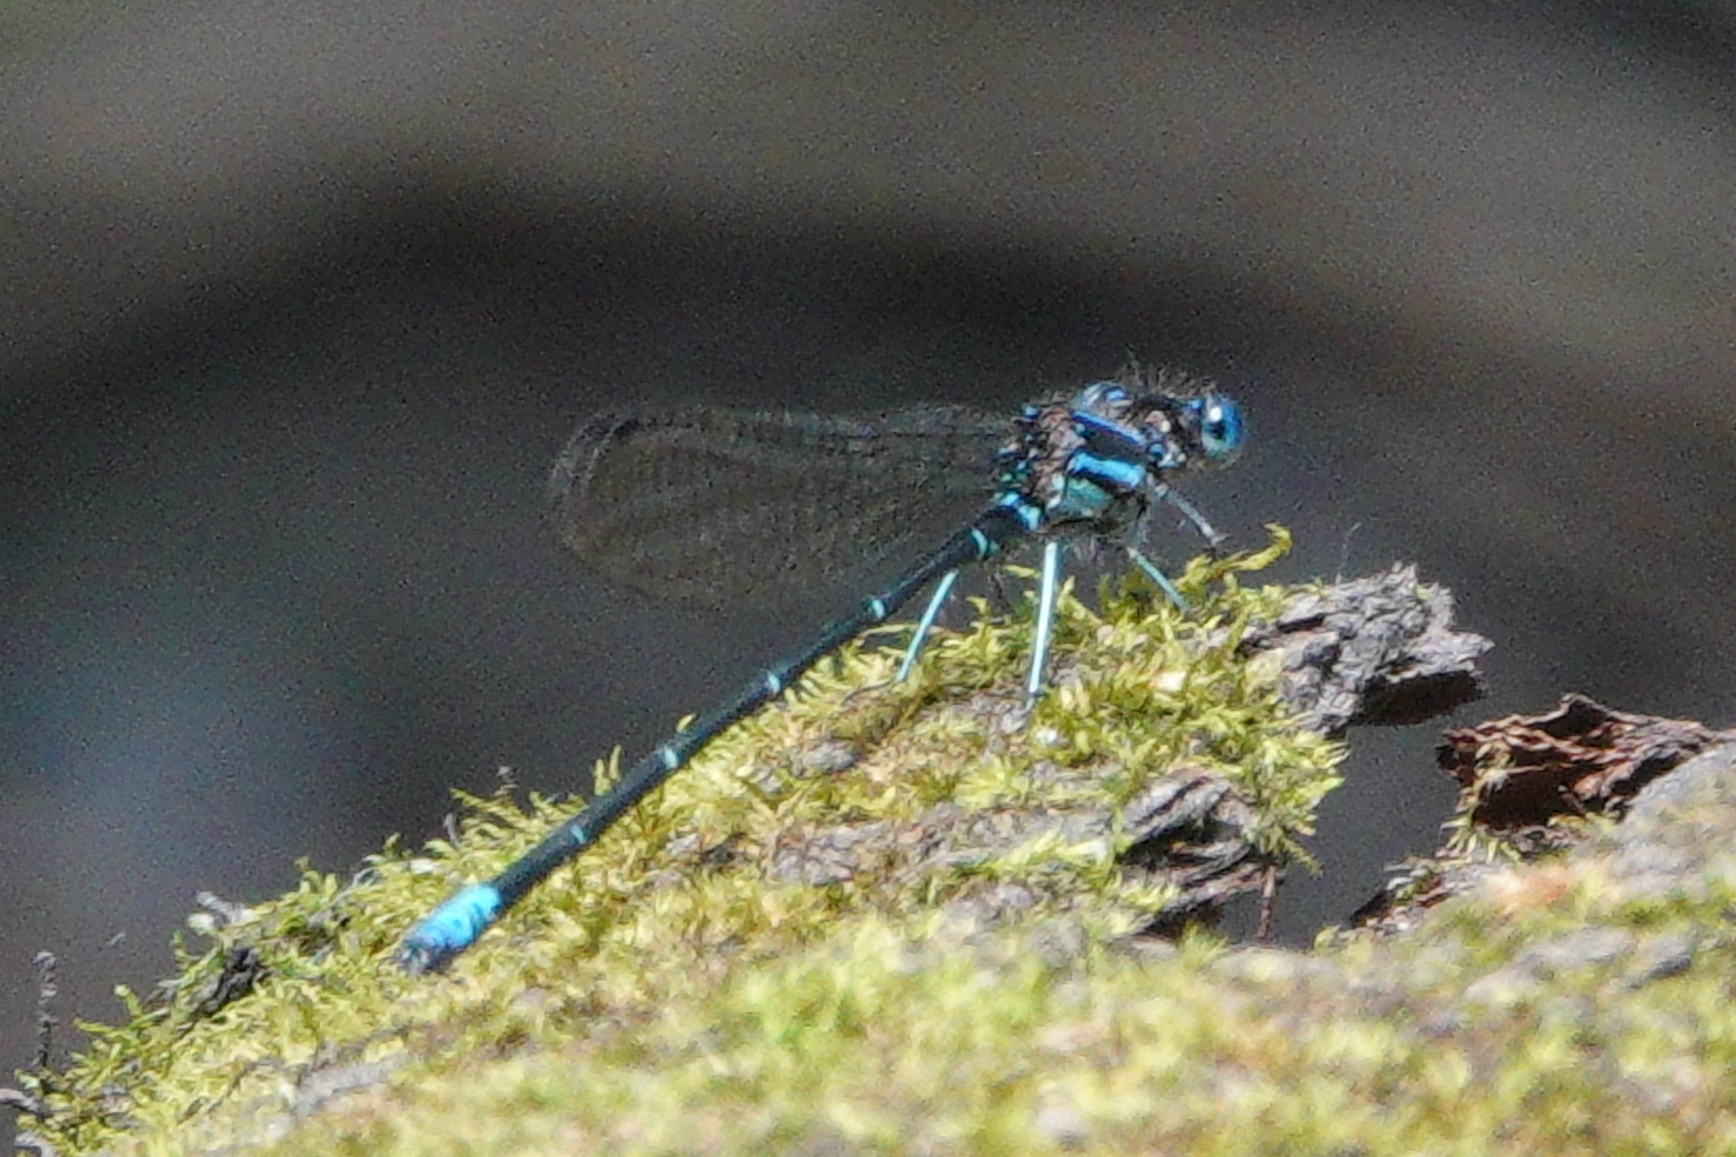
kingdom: Animalia
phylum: Arthropoda
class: Insecta
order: Odonata
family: Coenagrionidae
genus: Argia
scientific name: Argia sedula
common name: Blue-ringed dancer
